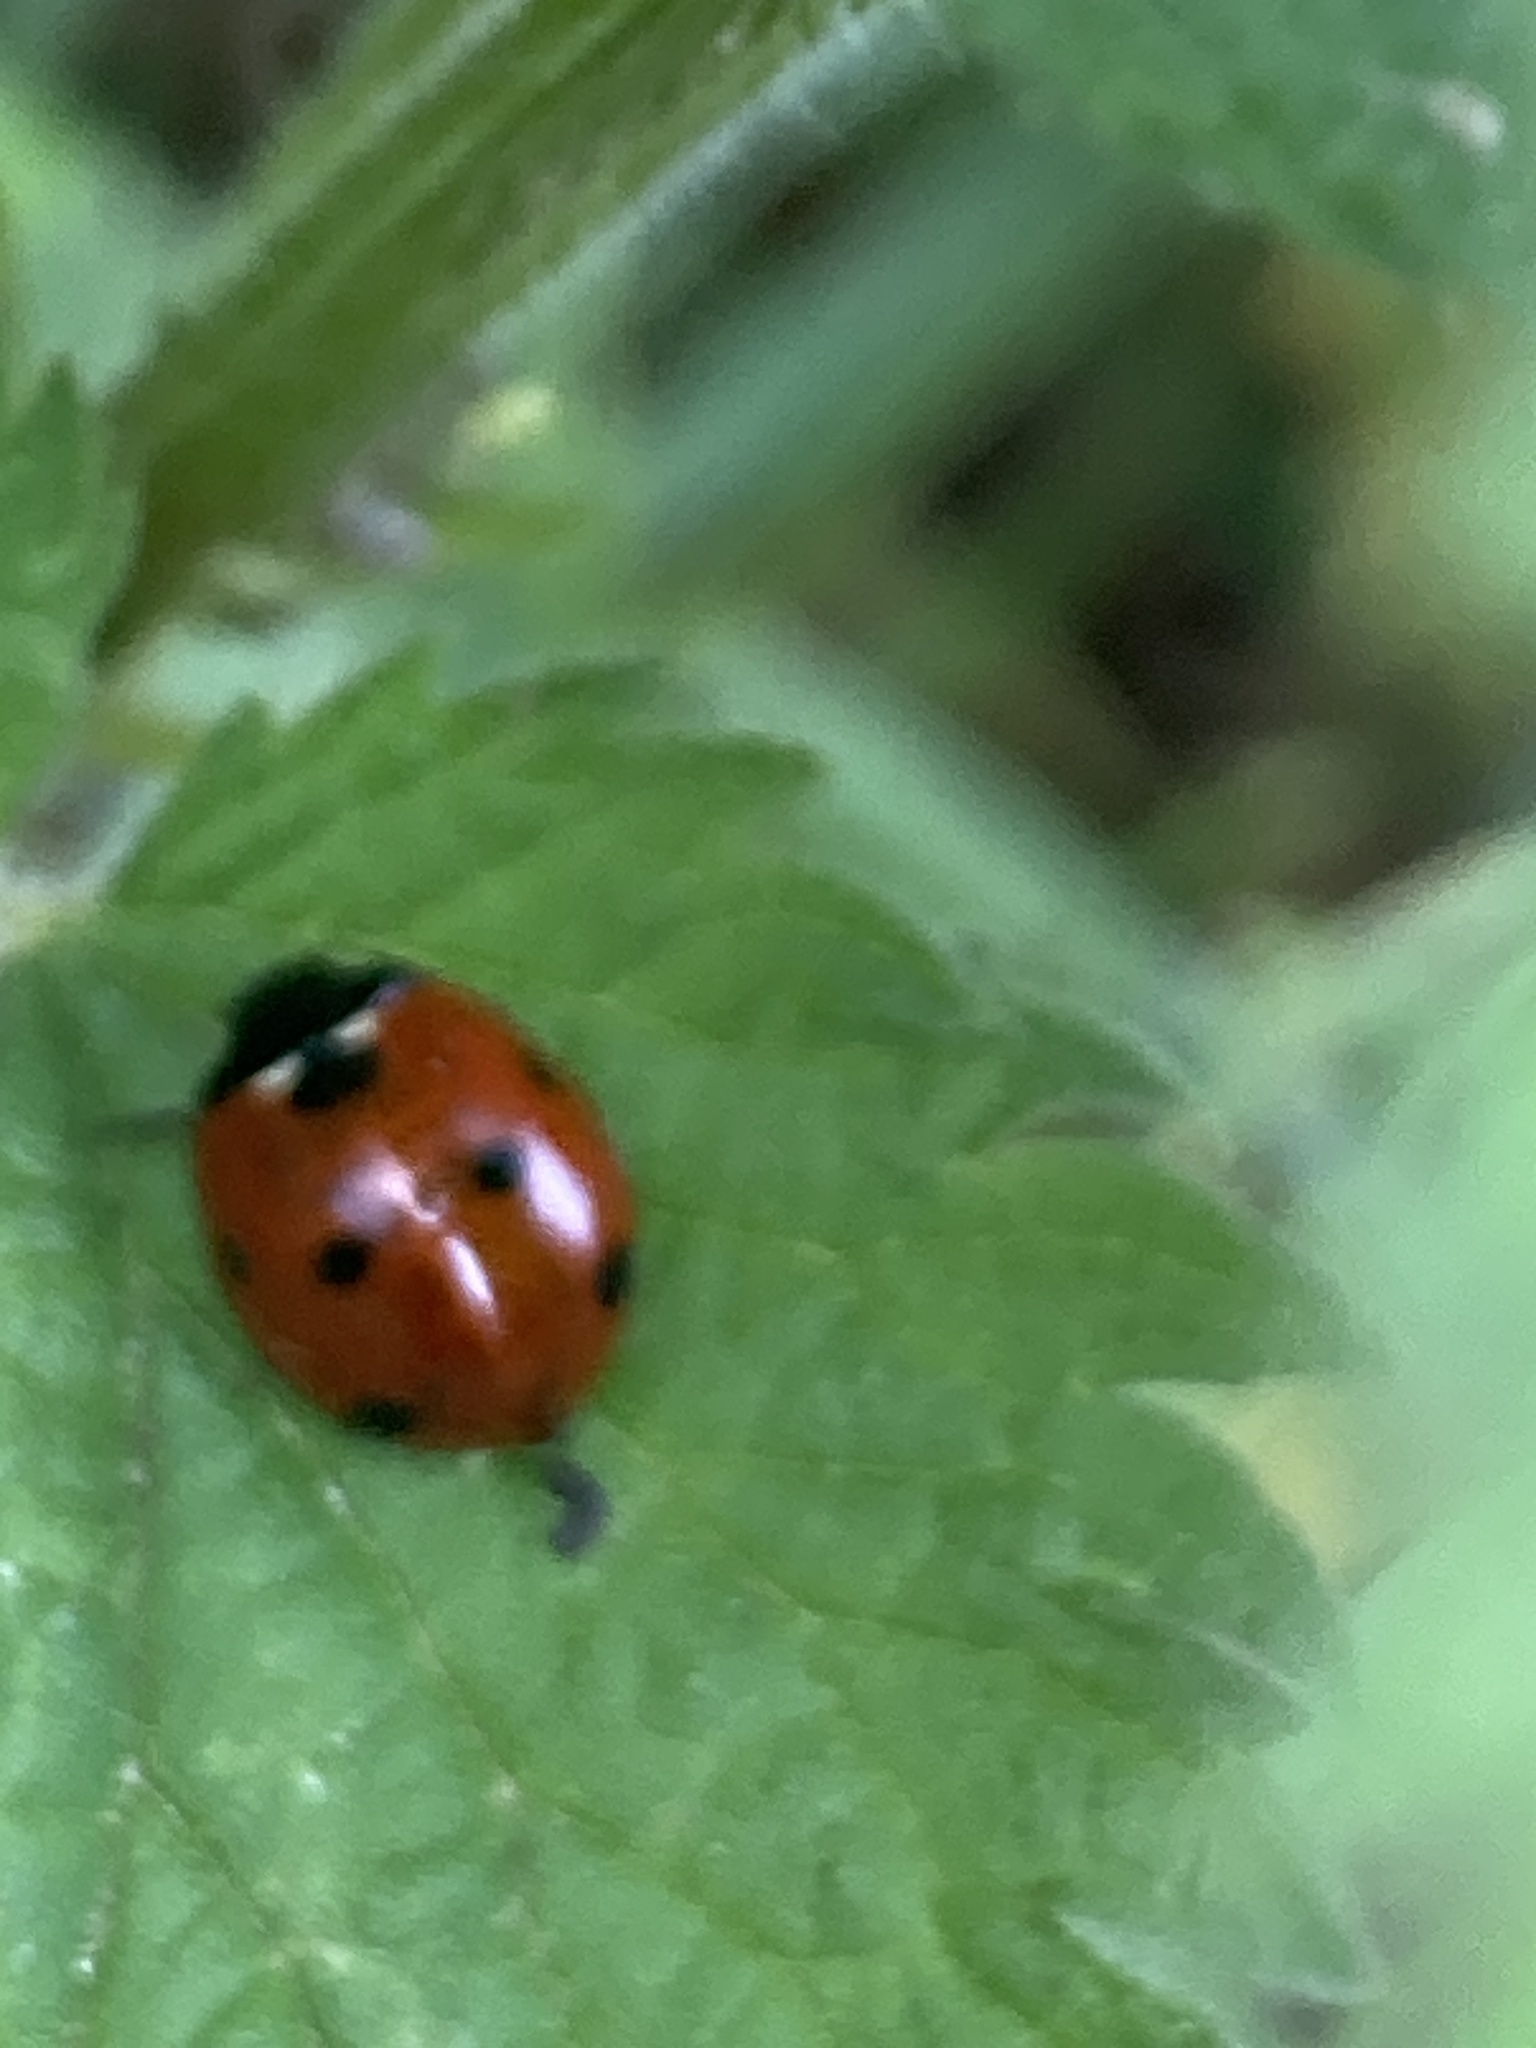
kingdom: Animalia
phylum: Arthropoda
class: Insecta
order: Coleoptera
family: Coccinellidae
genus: Coccinella
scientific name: Coccinella septempunctata
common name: Sevenspotted lady beetle
